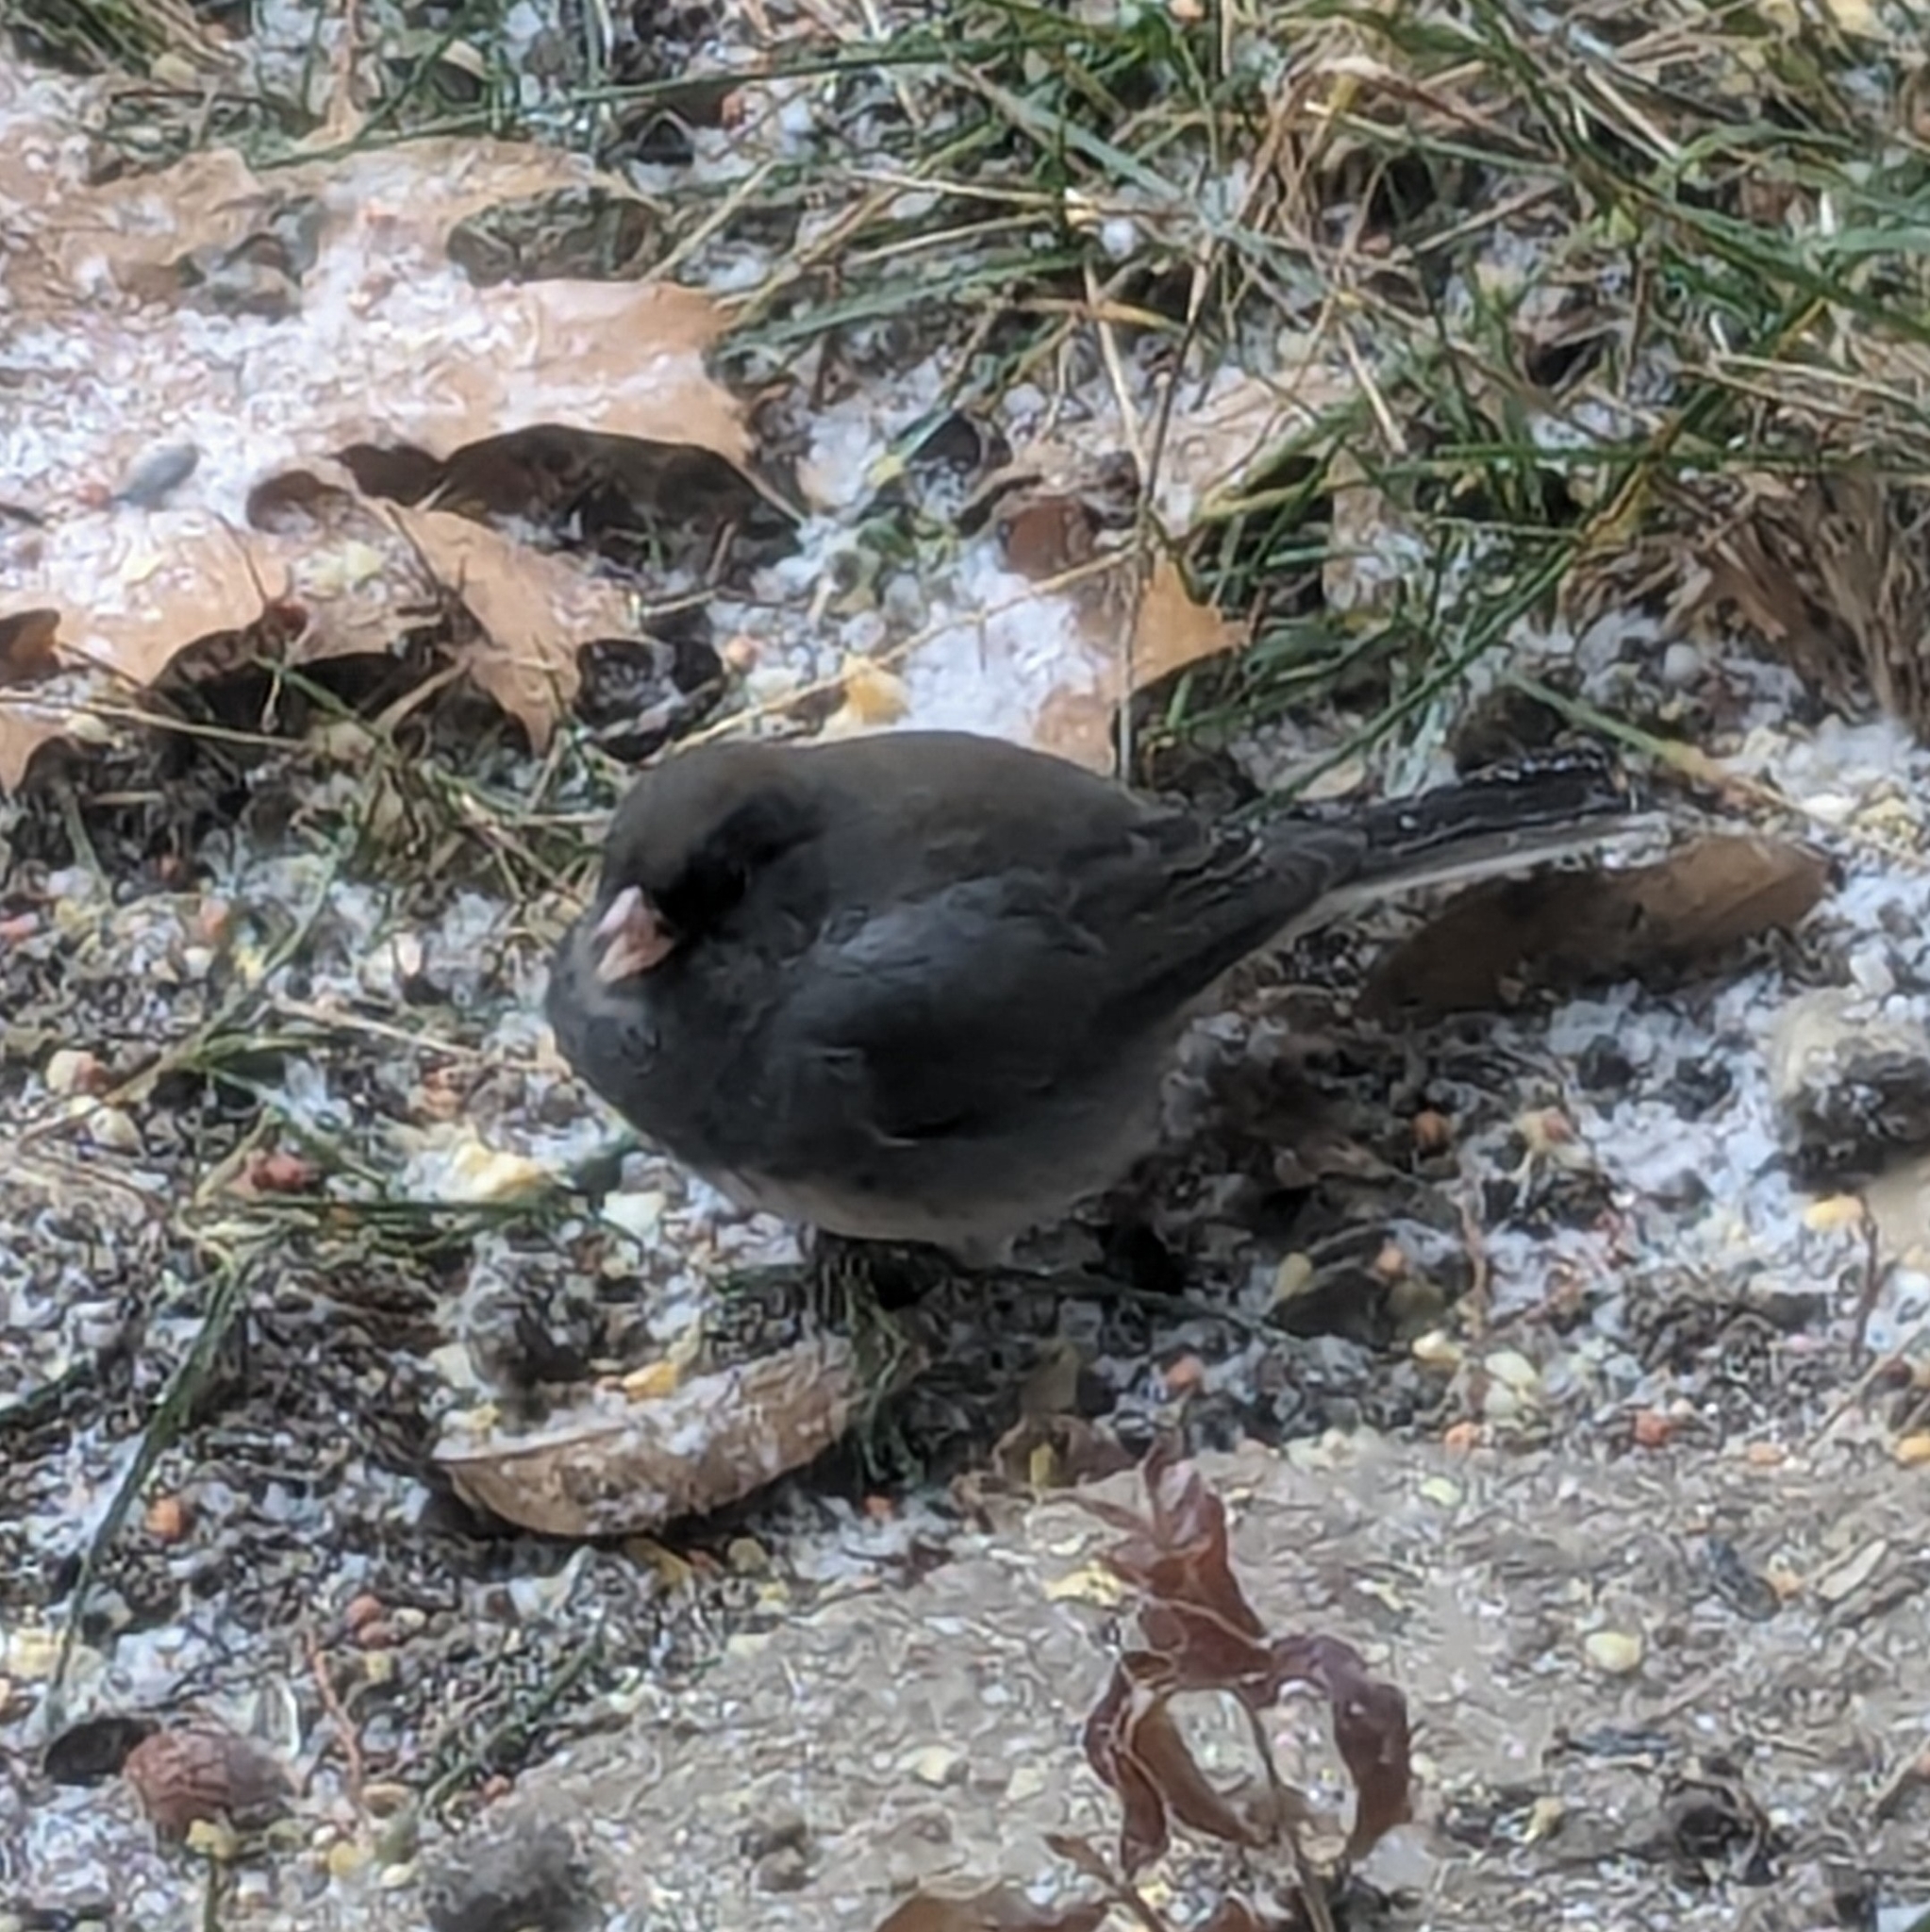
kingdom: Animalia
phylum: Chordata
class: Aves
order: Passeriformes
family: Passerellidae
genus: Junco
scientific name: Junco hyemalis
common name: Dark-eyed junco
